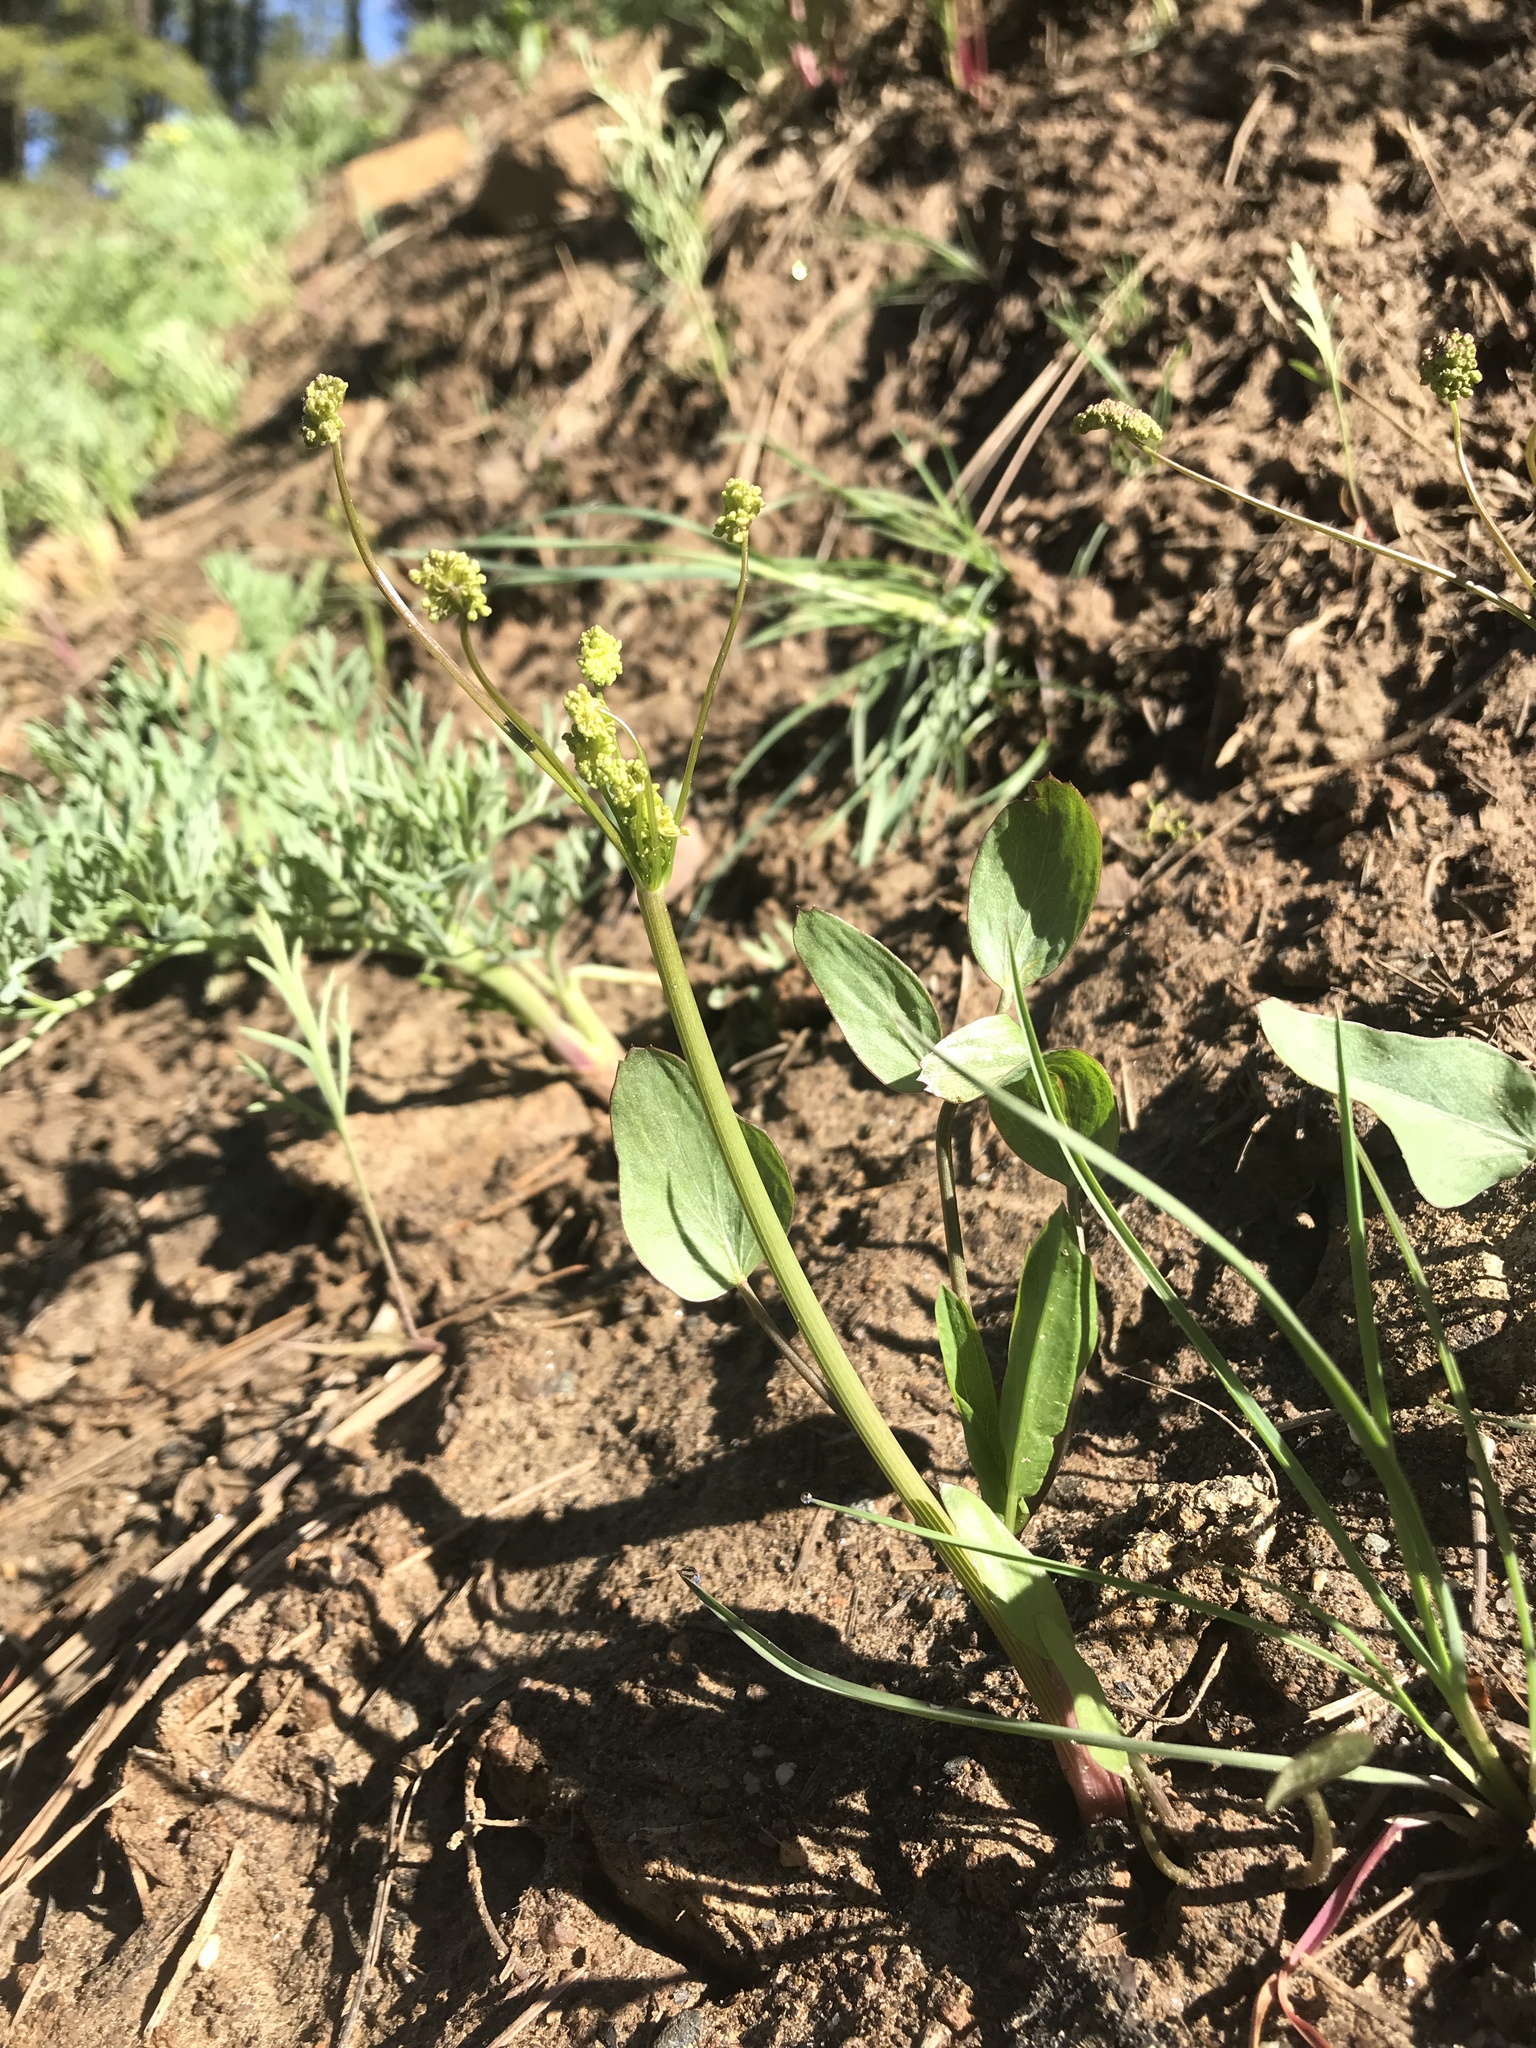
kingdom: Plantae
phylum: Tracheophyta
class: Magnoliopsida
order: Apiales
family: Apiaceae
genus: Lomatium
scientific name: Lomatium nudicaule
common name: Pestle lomatium
